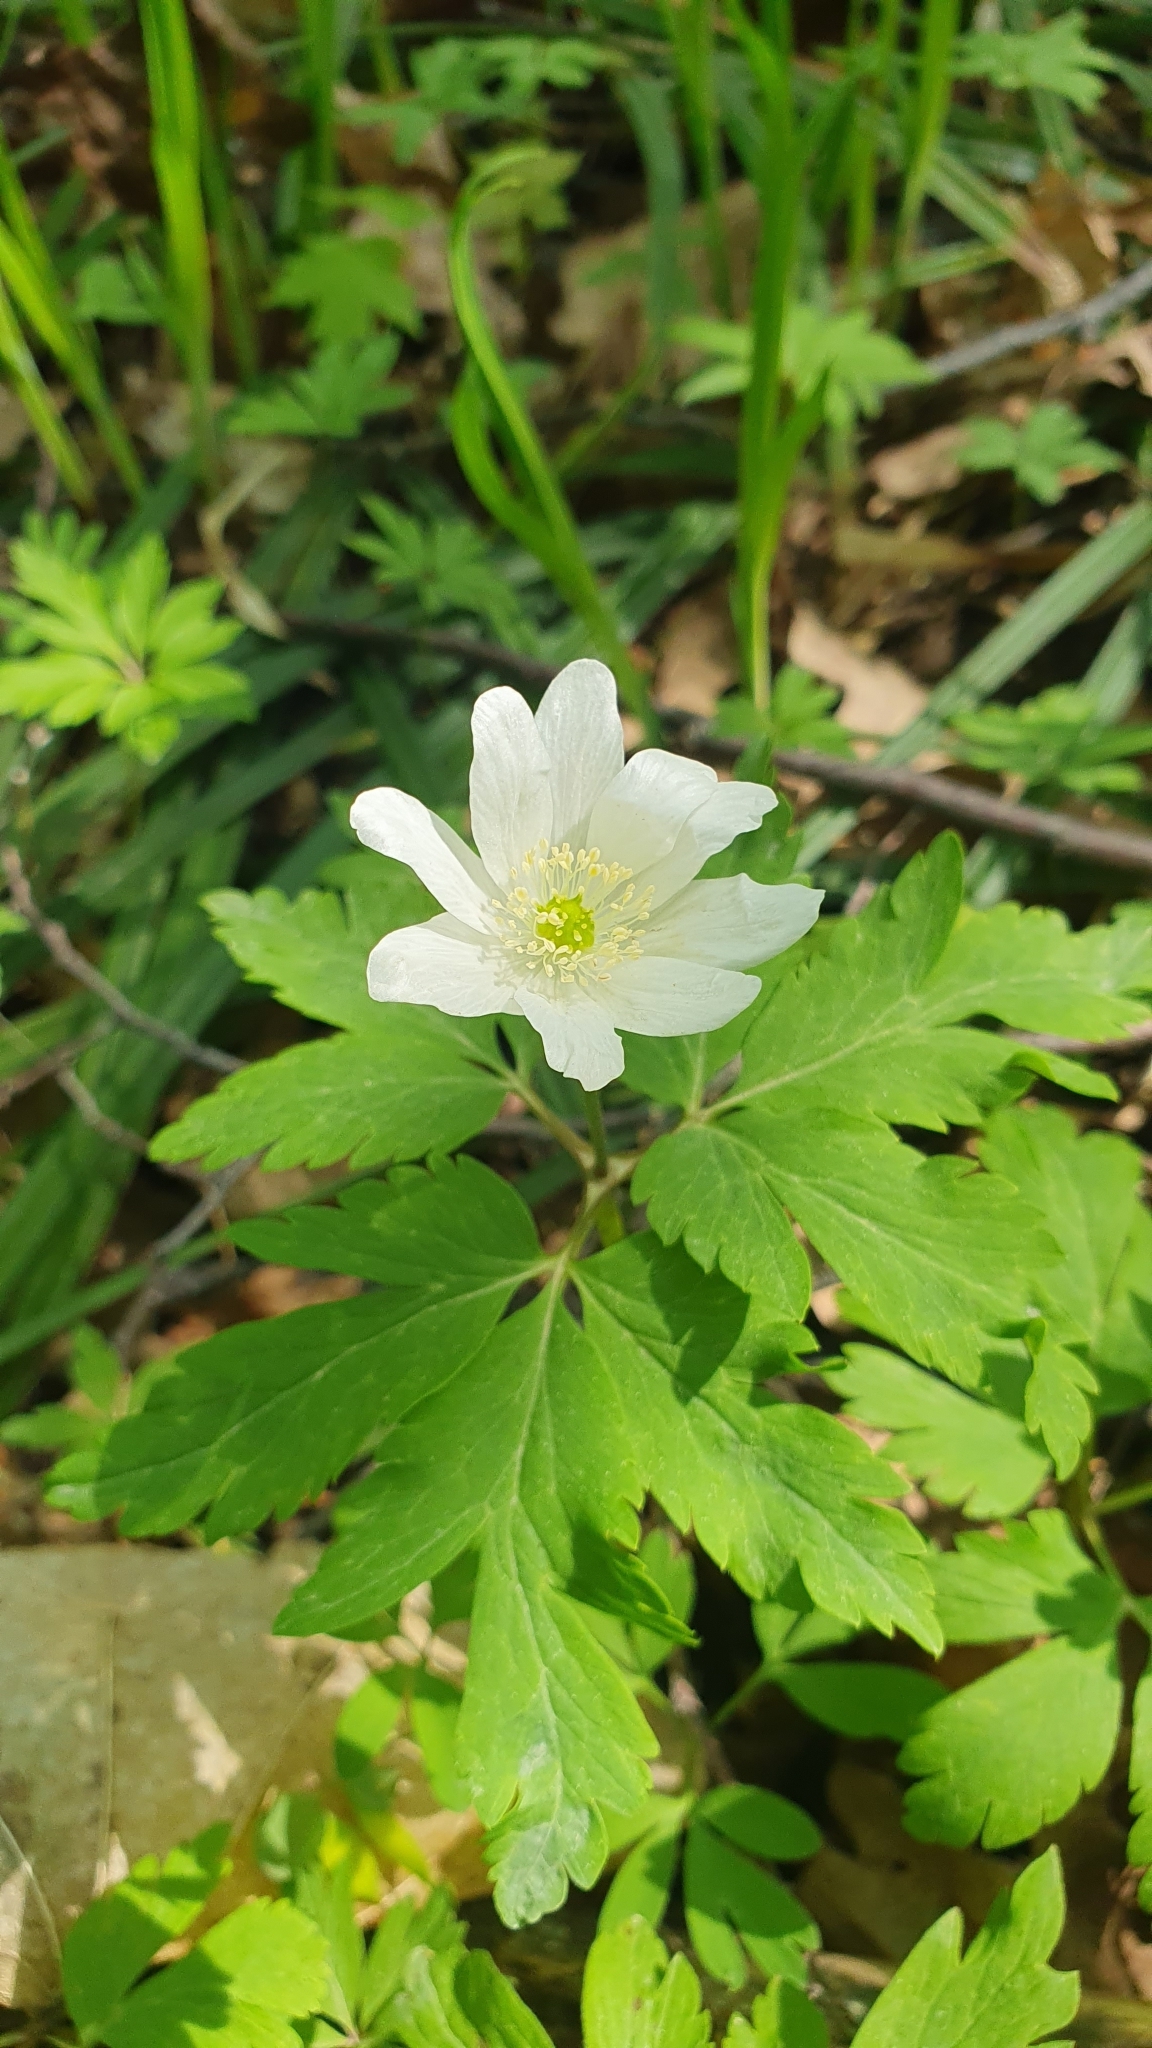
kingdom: Plantae
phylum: Tracheophyta
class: Magnoliopsida
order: Ranunculales
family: Ranunculaceae
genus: Anemone
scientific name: Anemone altaica
